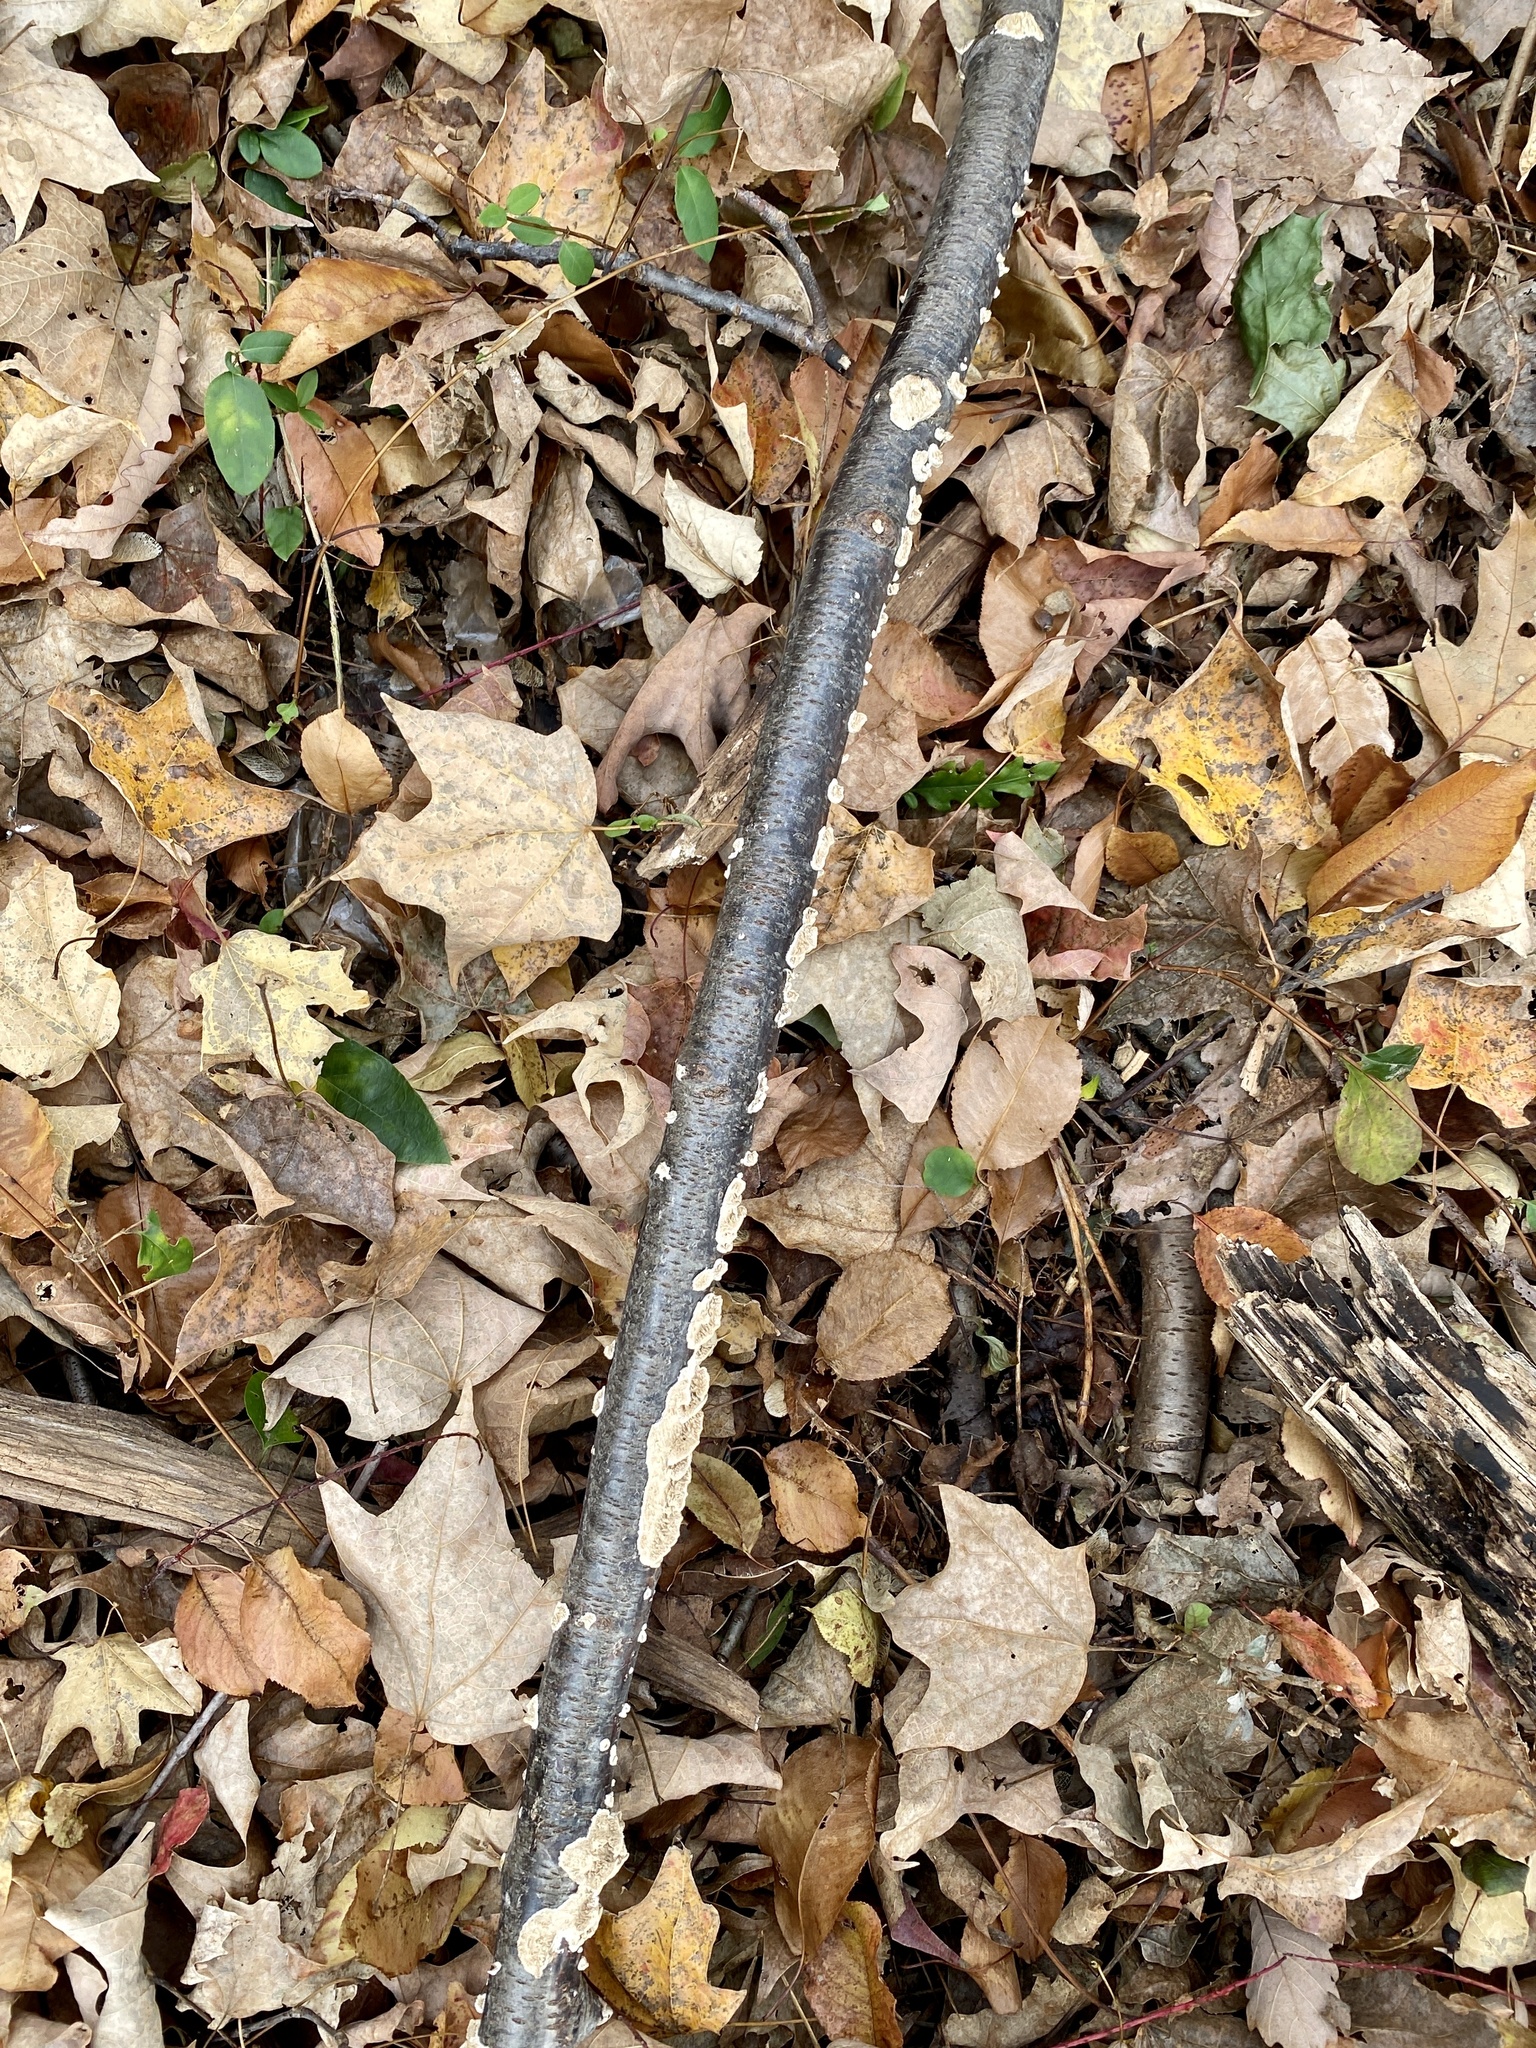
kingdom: Fungi
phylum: Basidiomycota
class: Agaricomycetes
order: Polyporales
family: Irpicaceae
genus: Irpex
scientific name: Irpex lacteus
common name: Milk-white toothed polypore
